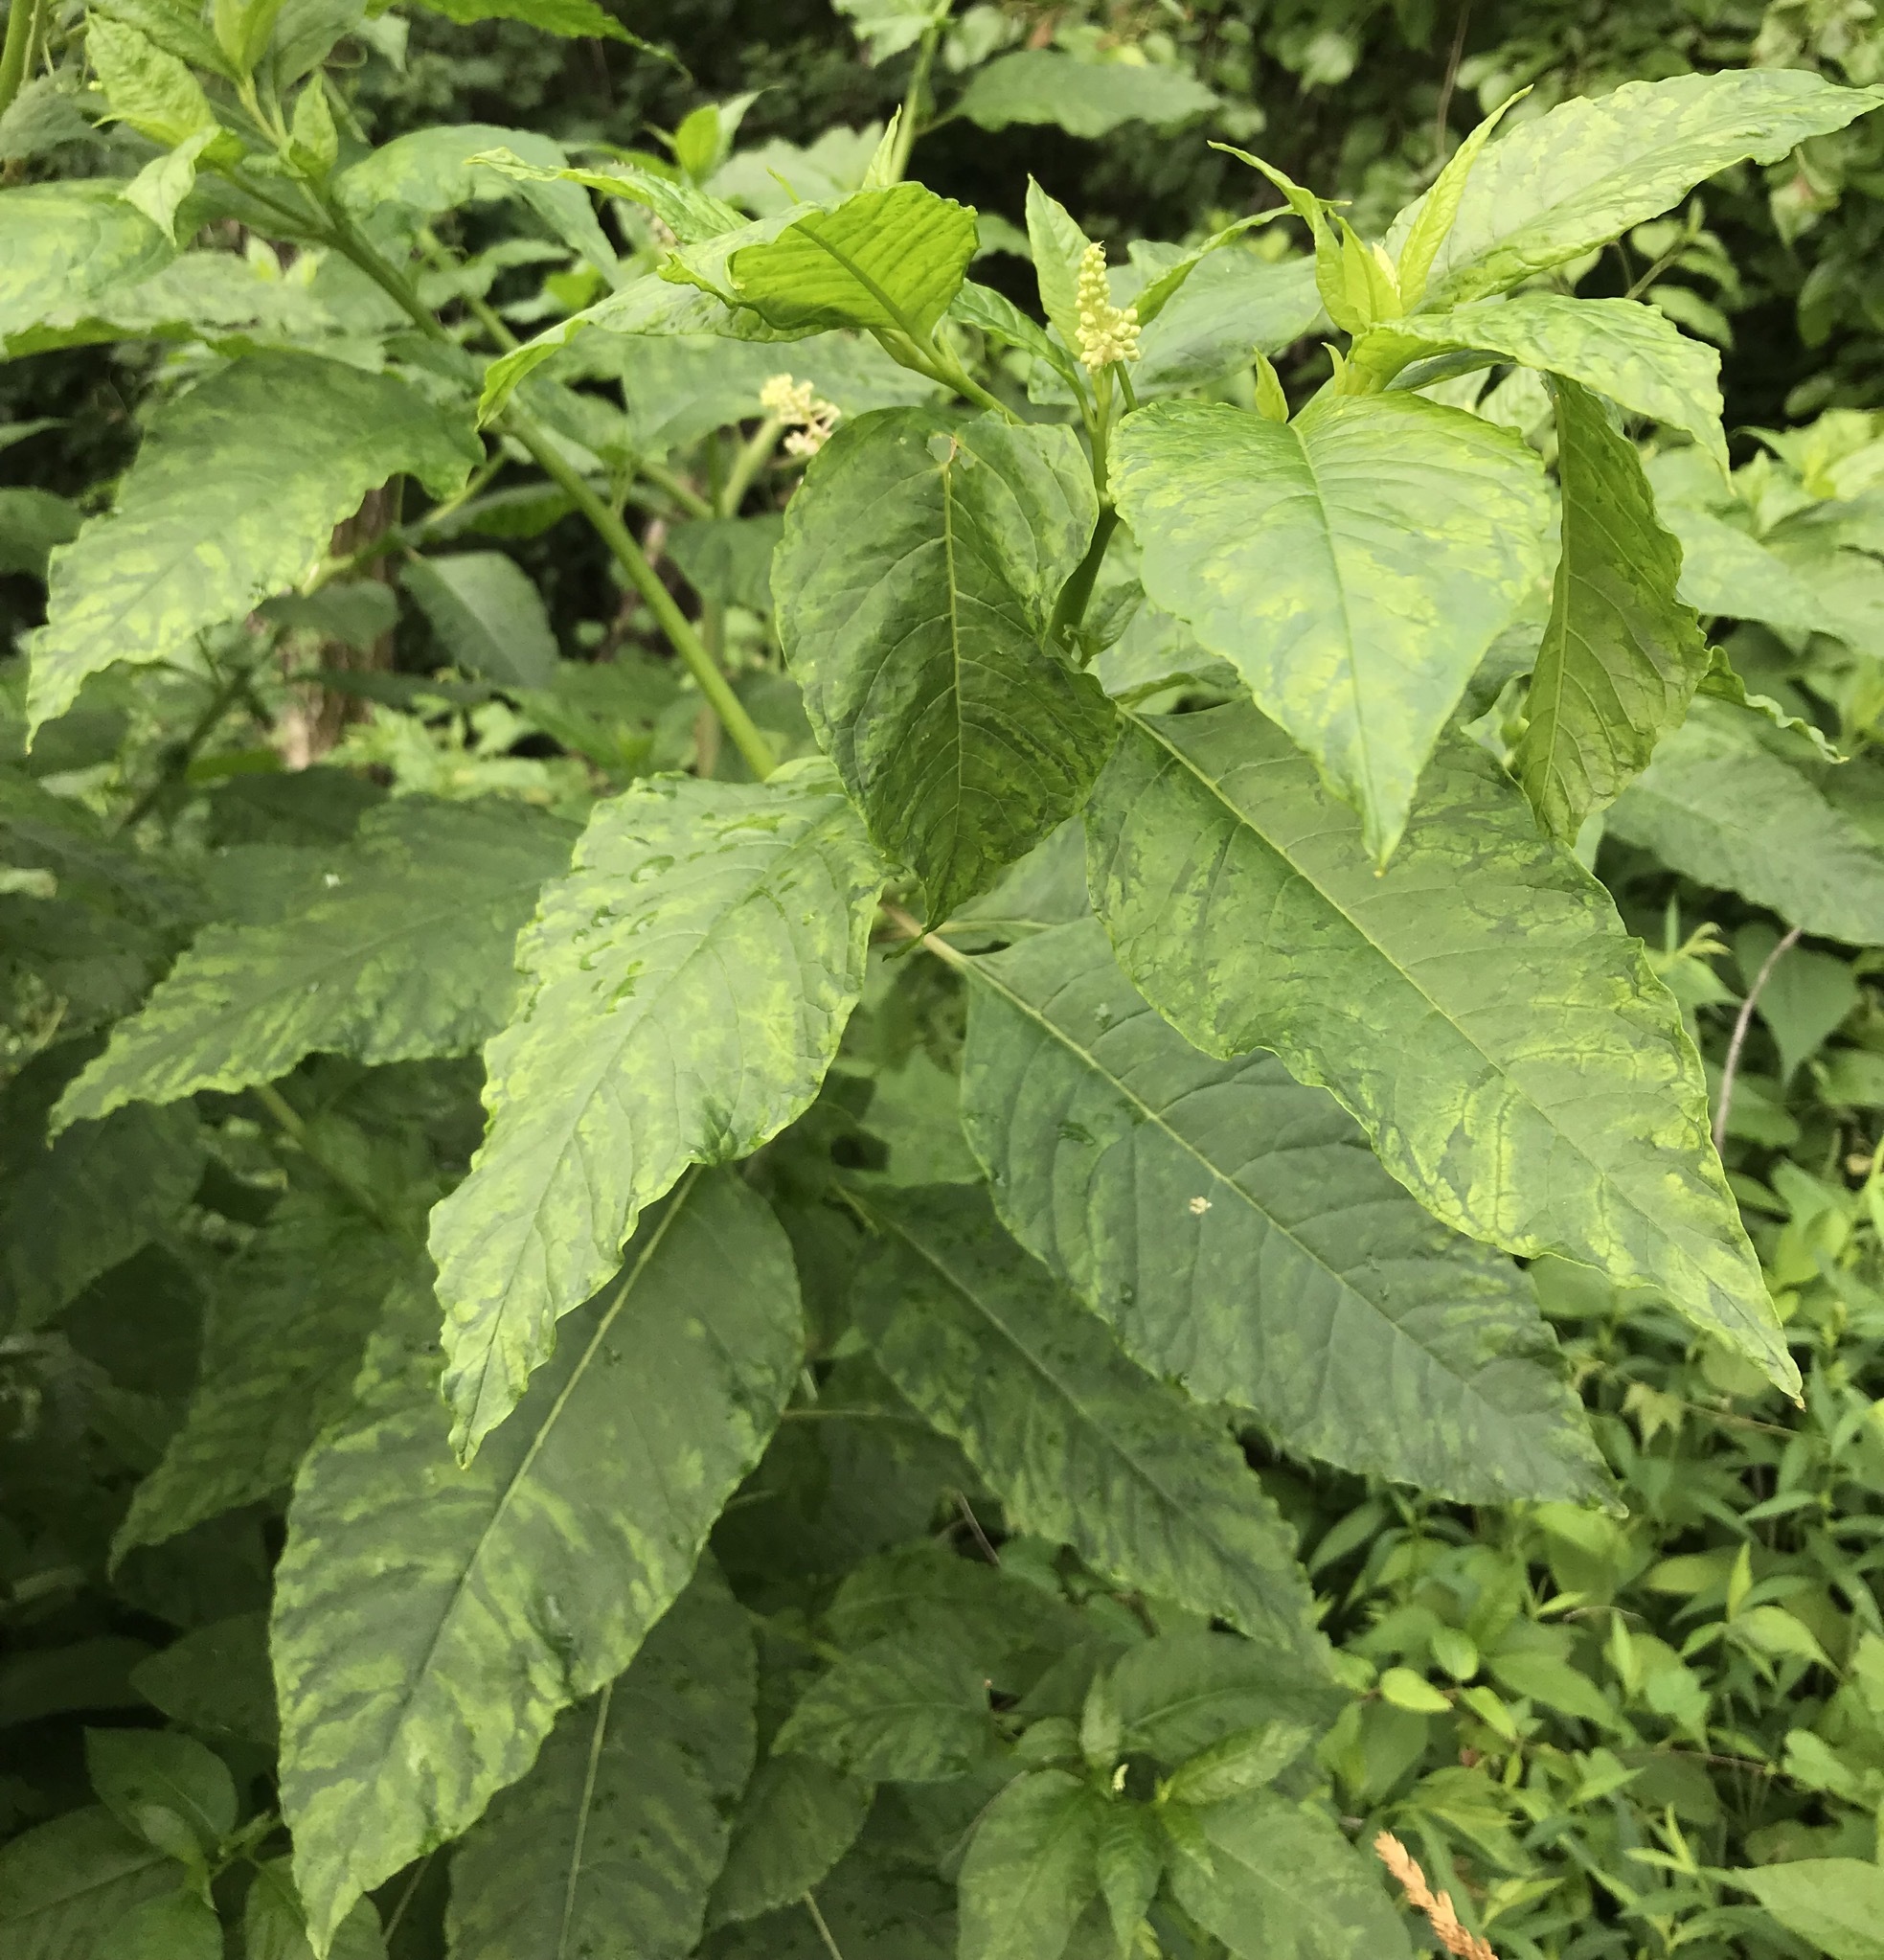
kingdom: Plantae
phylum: Tracheophyta
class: Magnoliopsida
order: Caryophyllales
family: Phytolaccaceae
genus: Phytolacca
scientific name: Phytolacca americana
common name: American pokeweed
